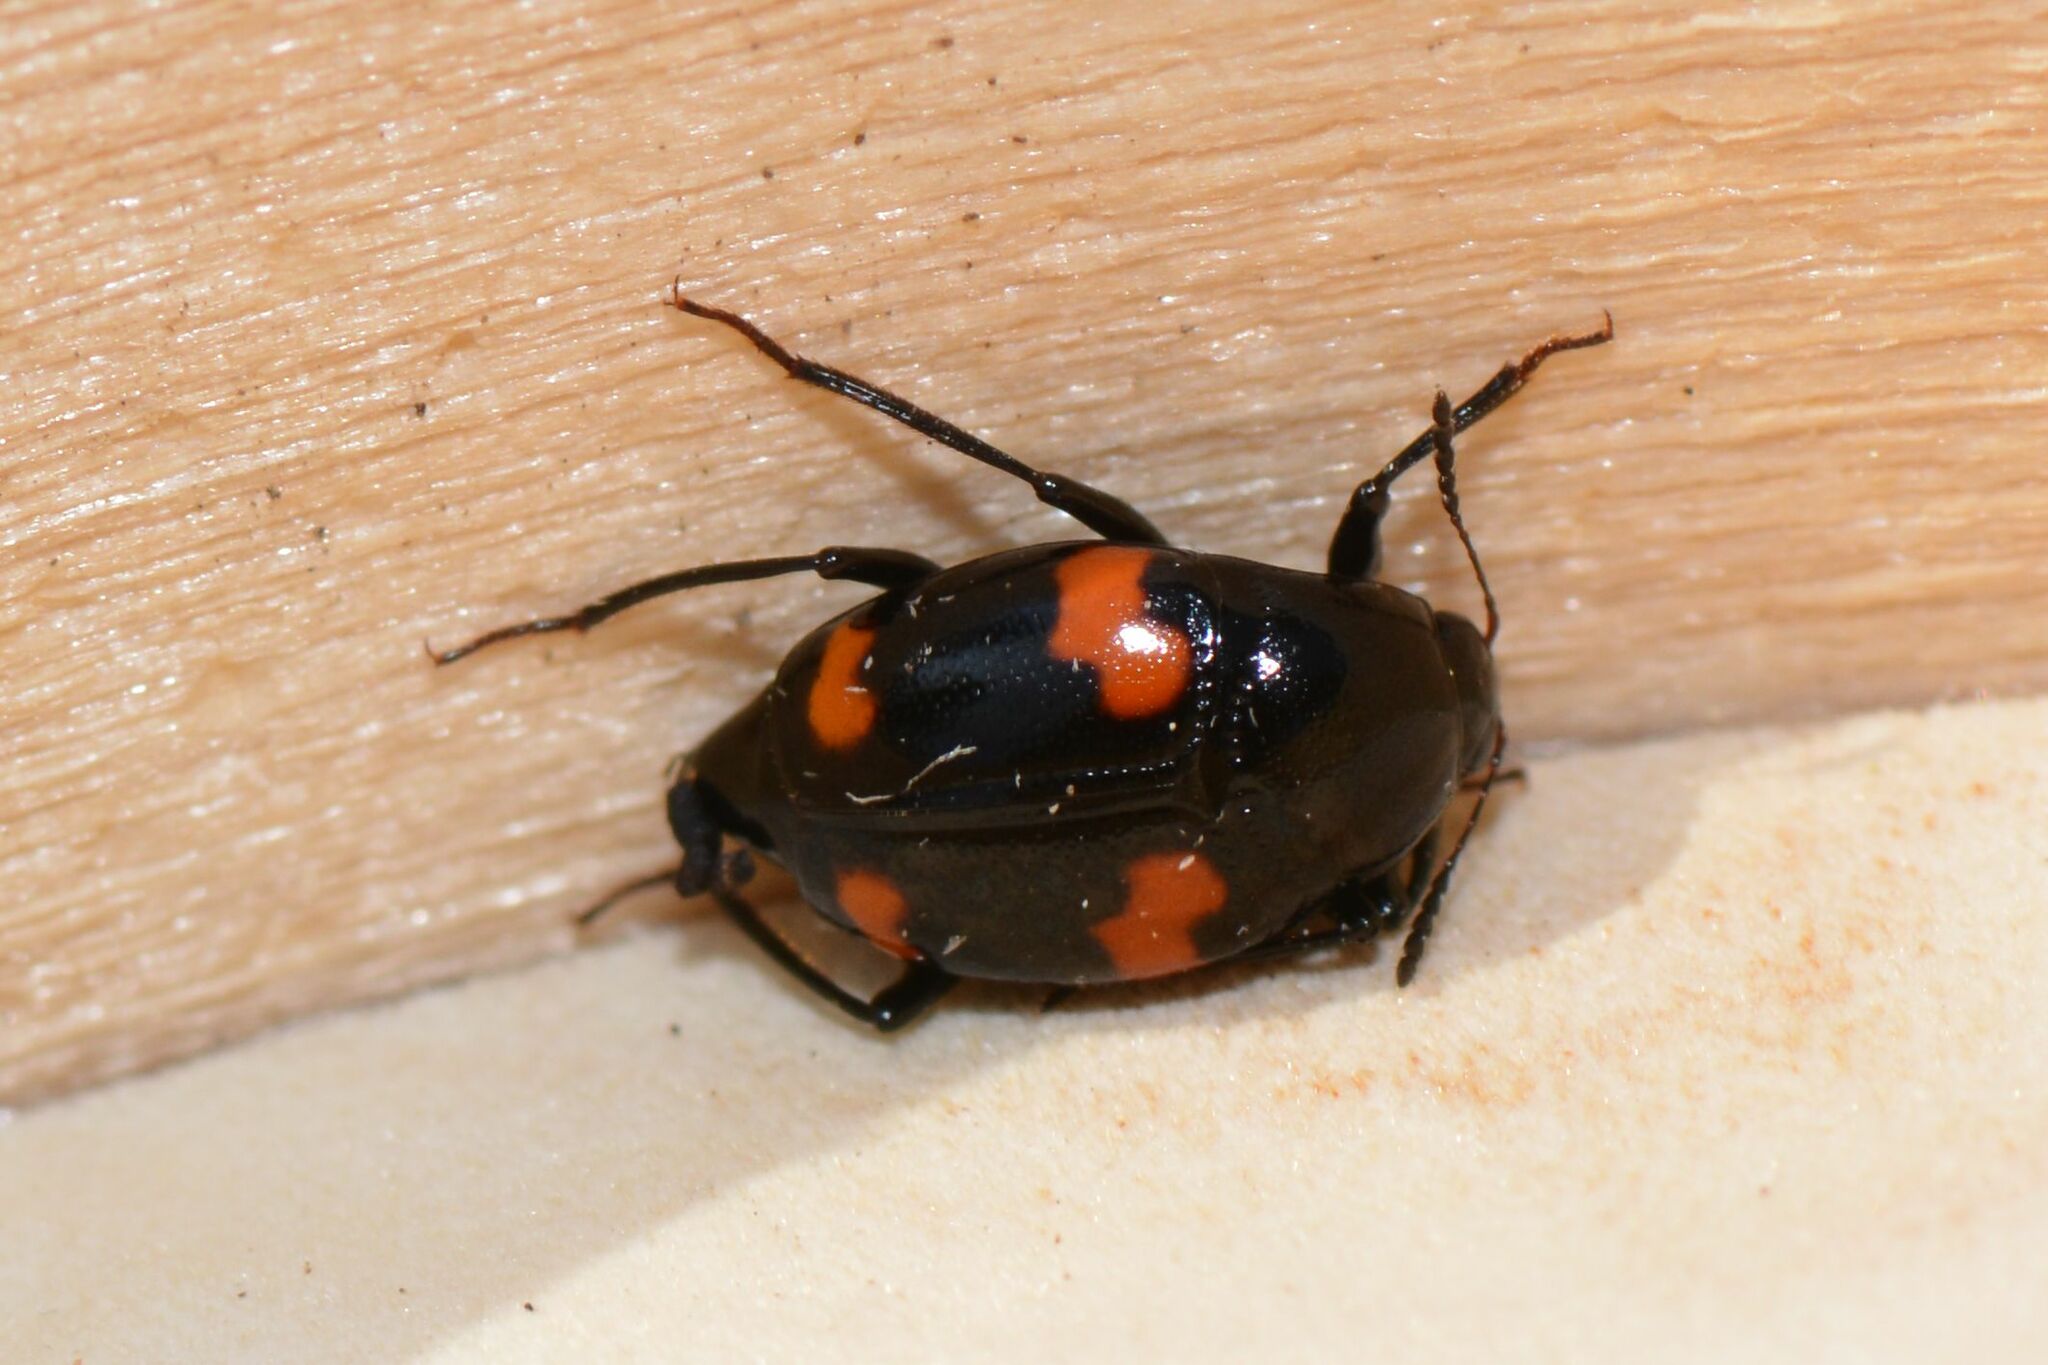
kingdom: Animalia
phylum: Arthropoda
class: Insecta
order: Coleoptera
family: Staphylinidae
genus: Scaphidium
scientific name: Scaphidium quadrimaculatum
